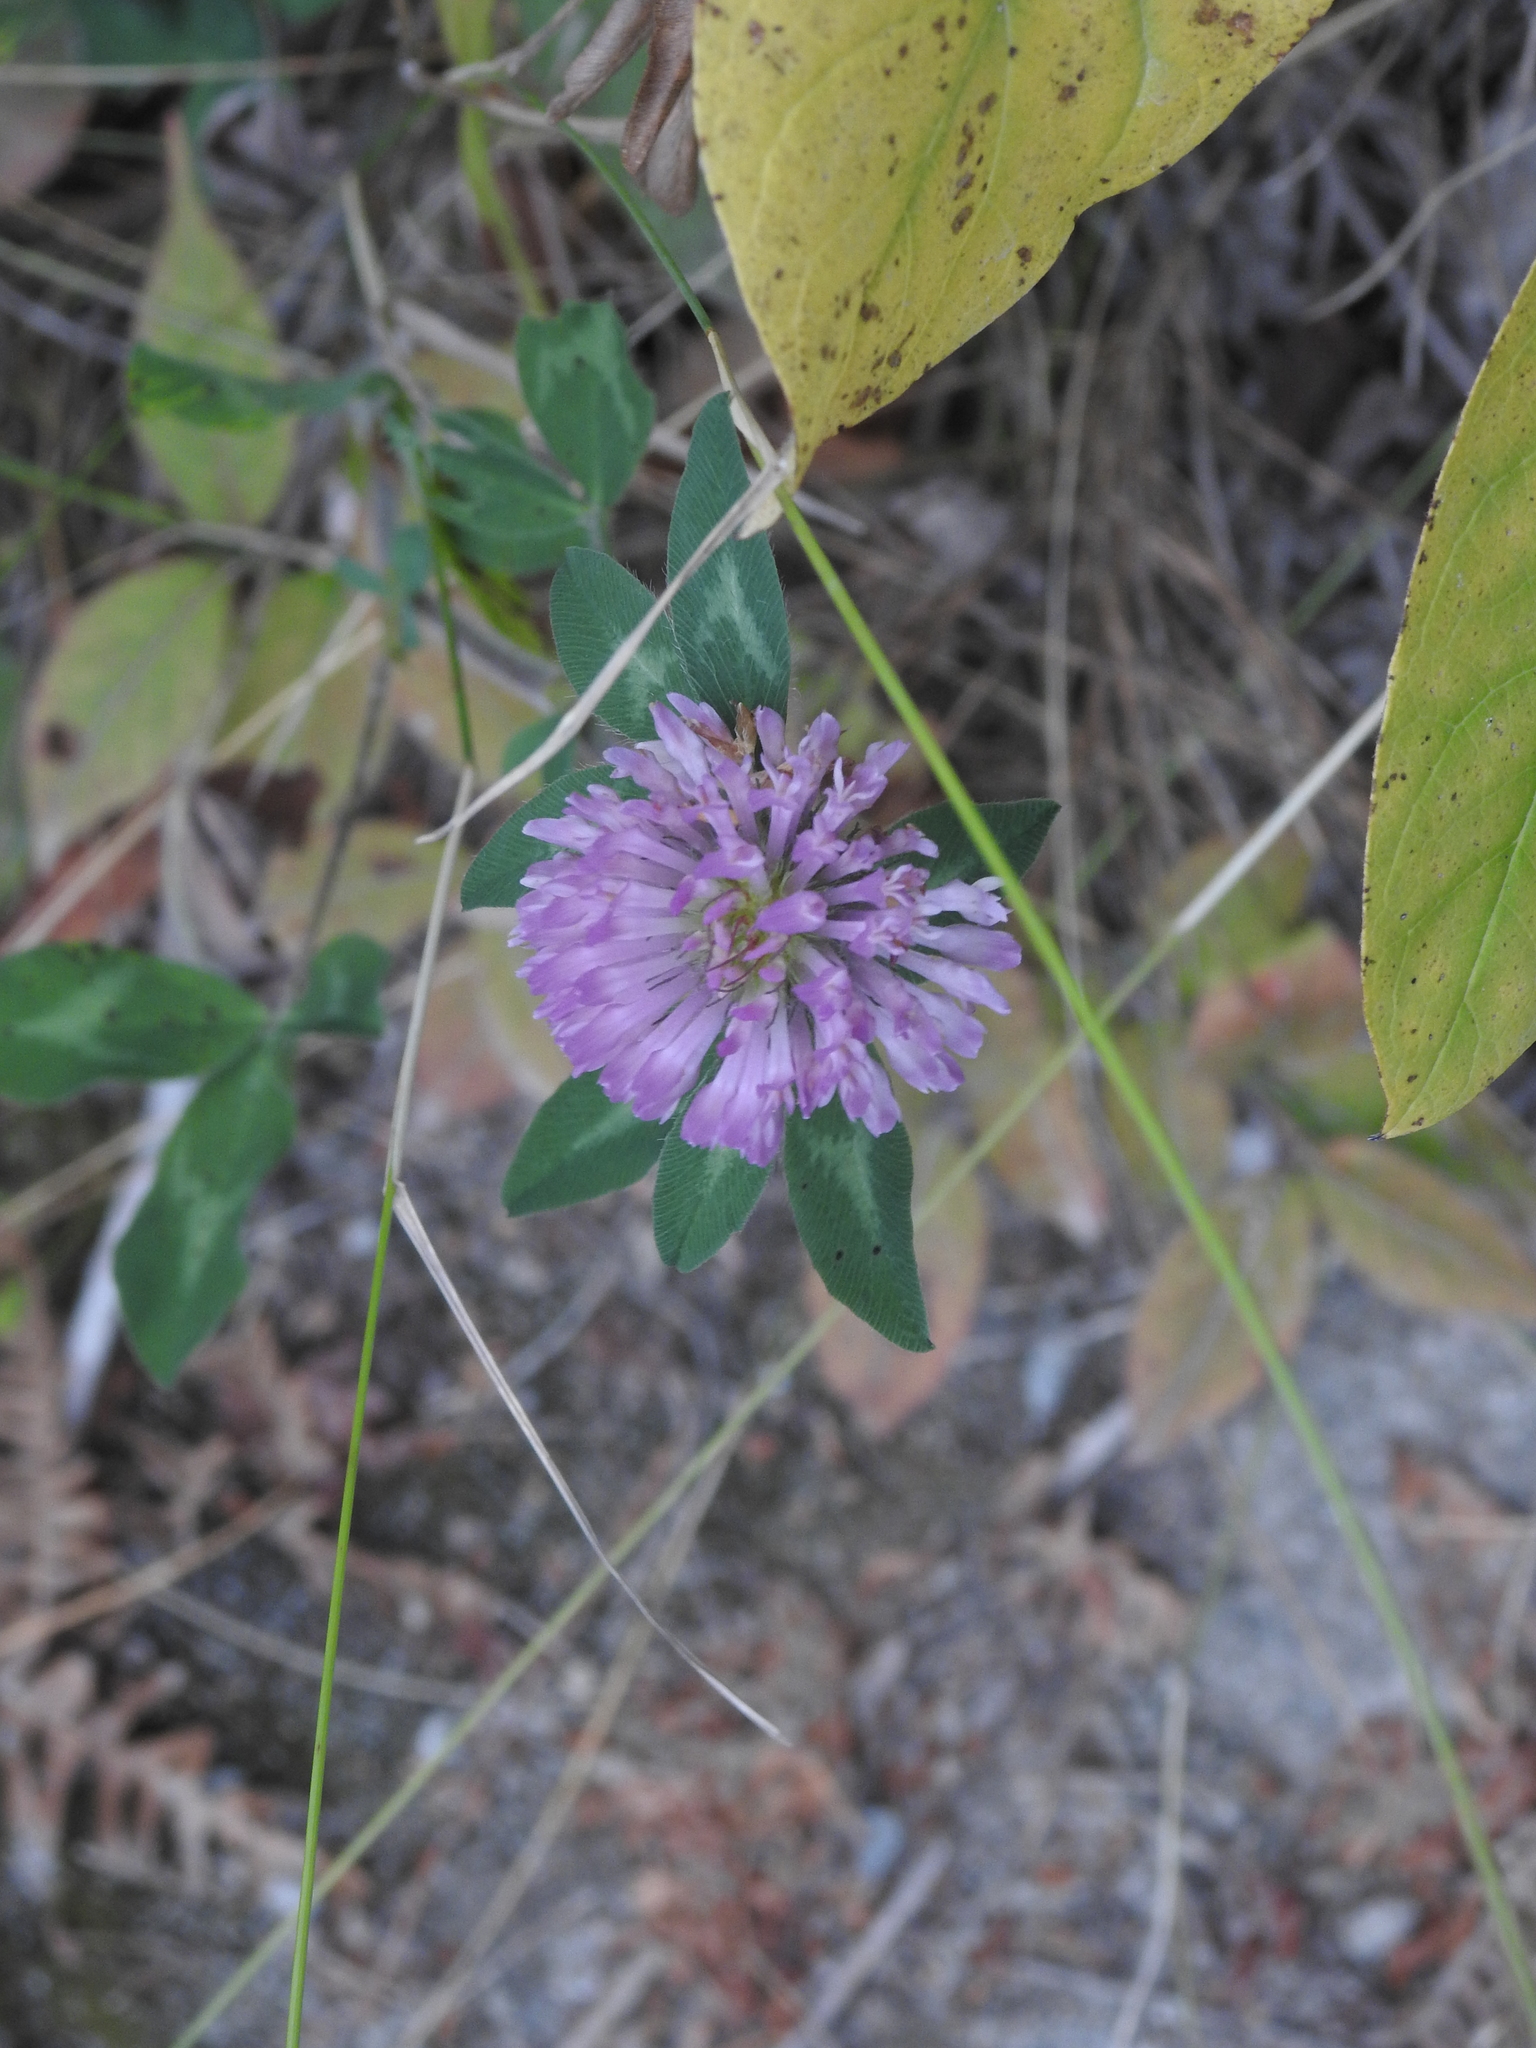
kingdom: Plantae
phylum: Tracheophyta
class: Magnoliopsida
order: Fabales
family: Fabaceae
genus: Trifolium
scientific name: Trifolium pratense
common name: Red clover
